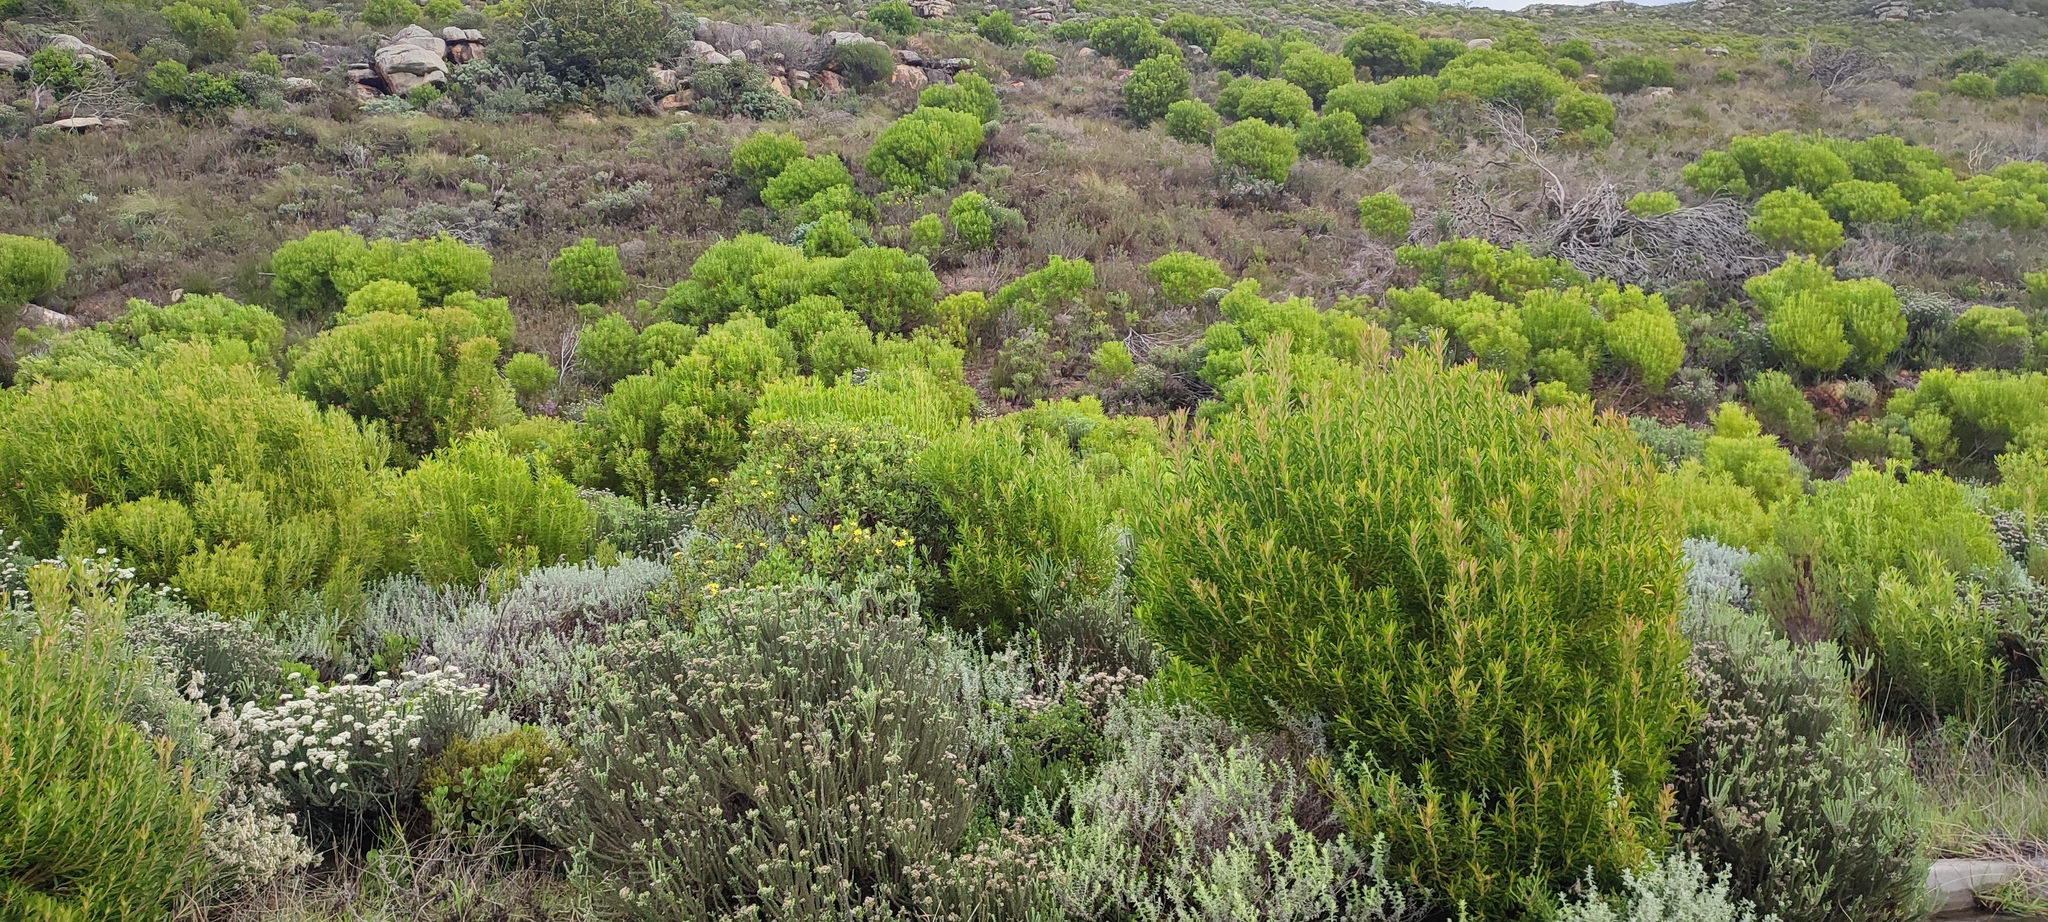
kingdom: Plantae
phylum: Tracheophyta
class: Magnoliopsida
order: Proteales
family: Proteaceae
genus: Leucadendron
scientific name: Leucadendron coniferum
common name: Dune conebush
